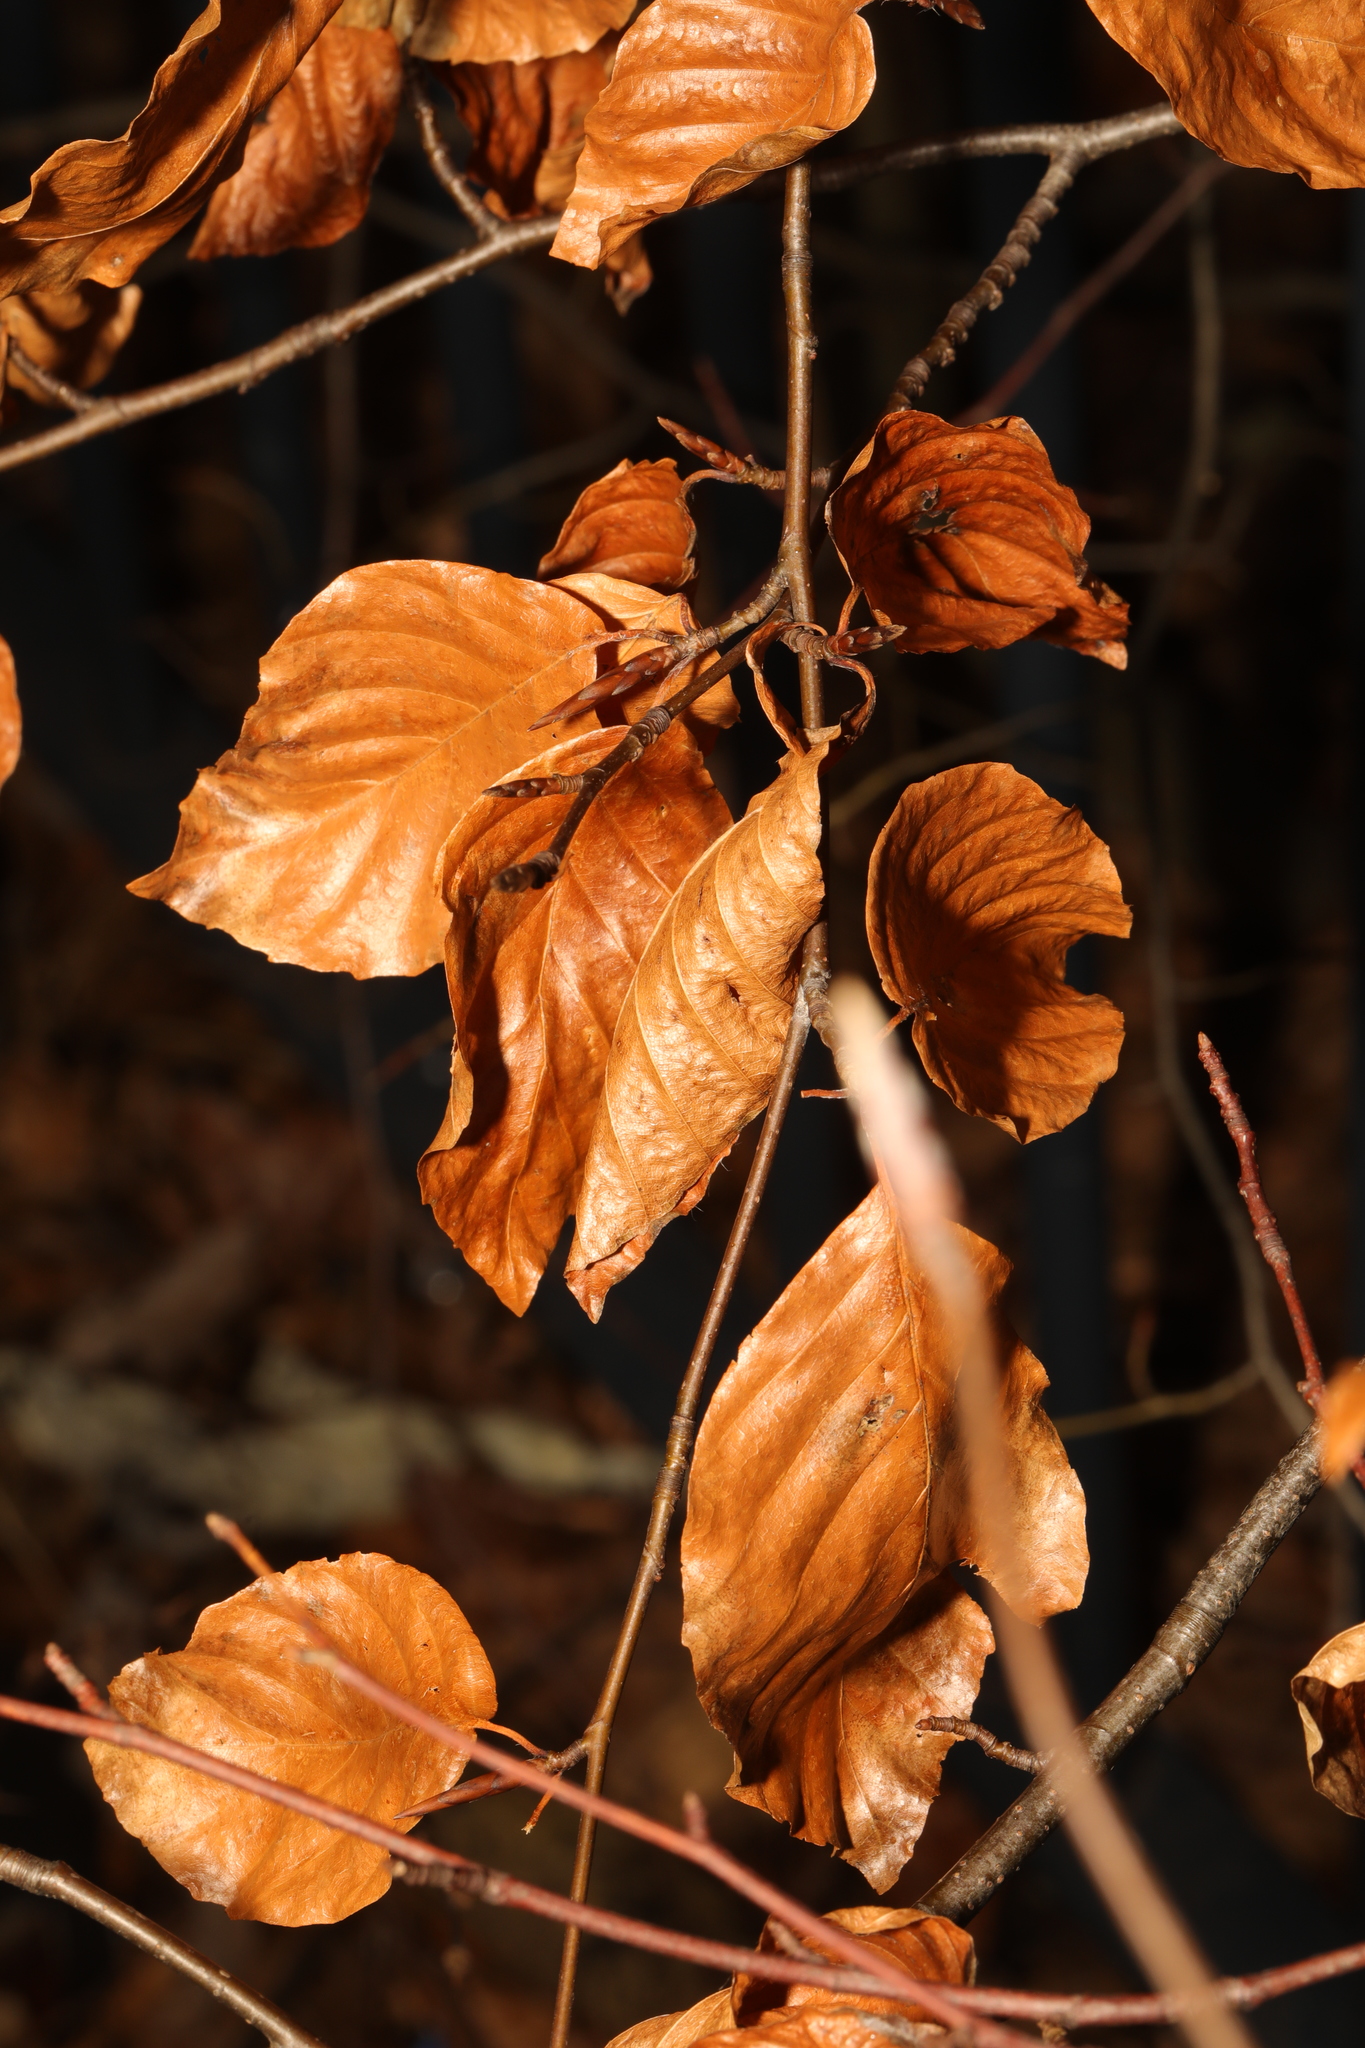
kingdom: Plantae
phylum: Tracheophyta
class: Magnoliopsida
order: Fagales
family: Fagaceae
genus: Fagus
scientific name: Fagus sylvatica
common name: Beech
